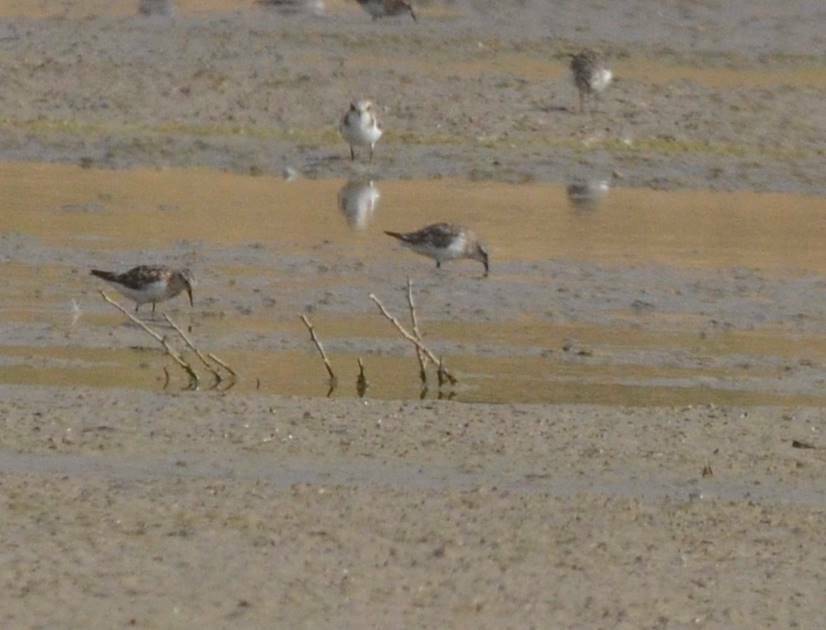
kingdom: Animalia
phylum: Chordata
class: Aves
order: Charadriiformes
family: Scolopacidae
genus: Calidris
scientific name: Calidris minuta
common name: Little stint
